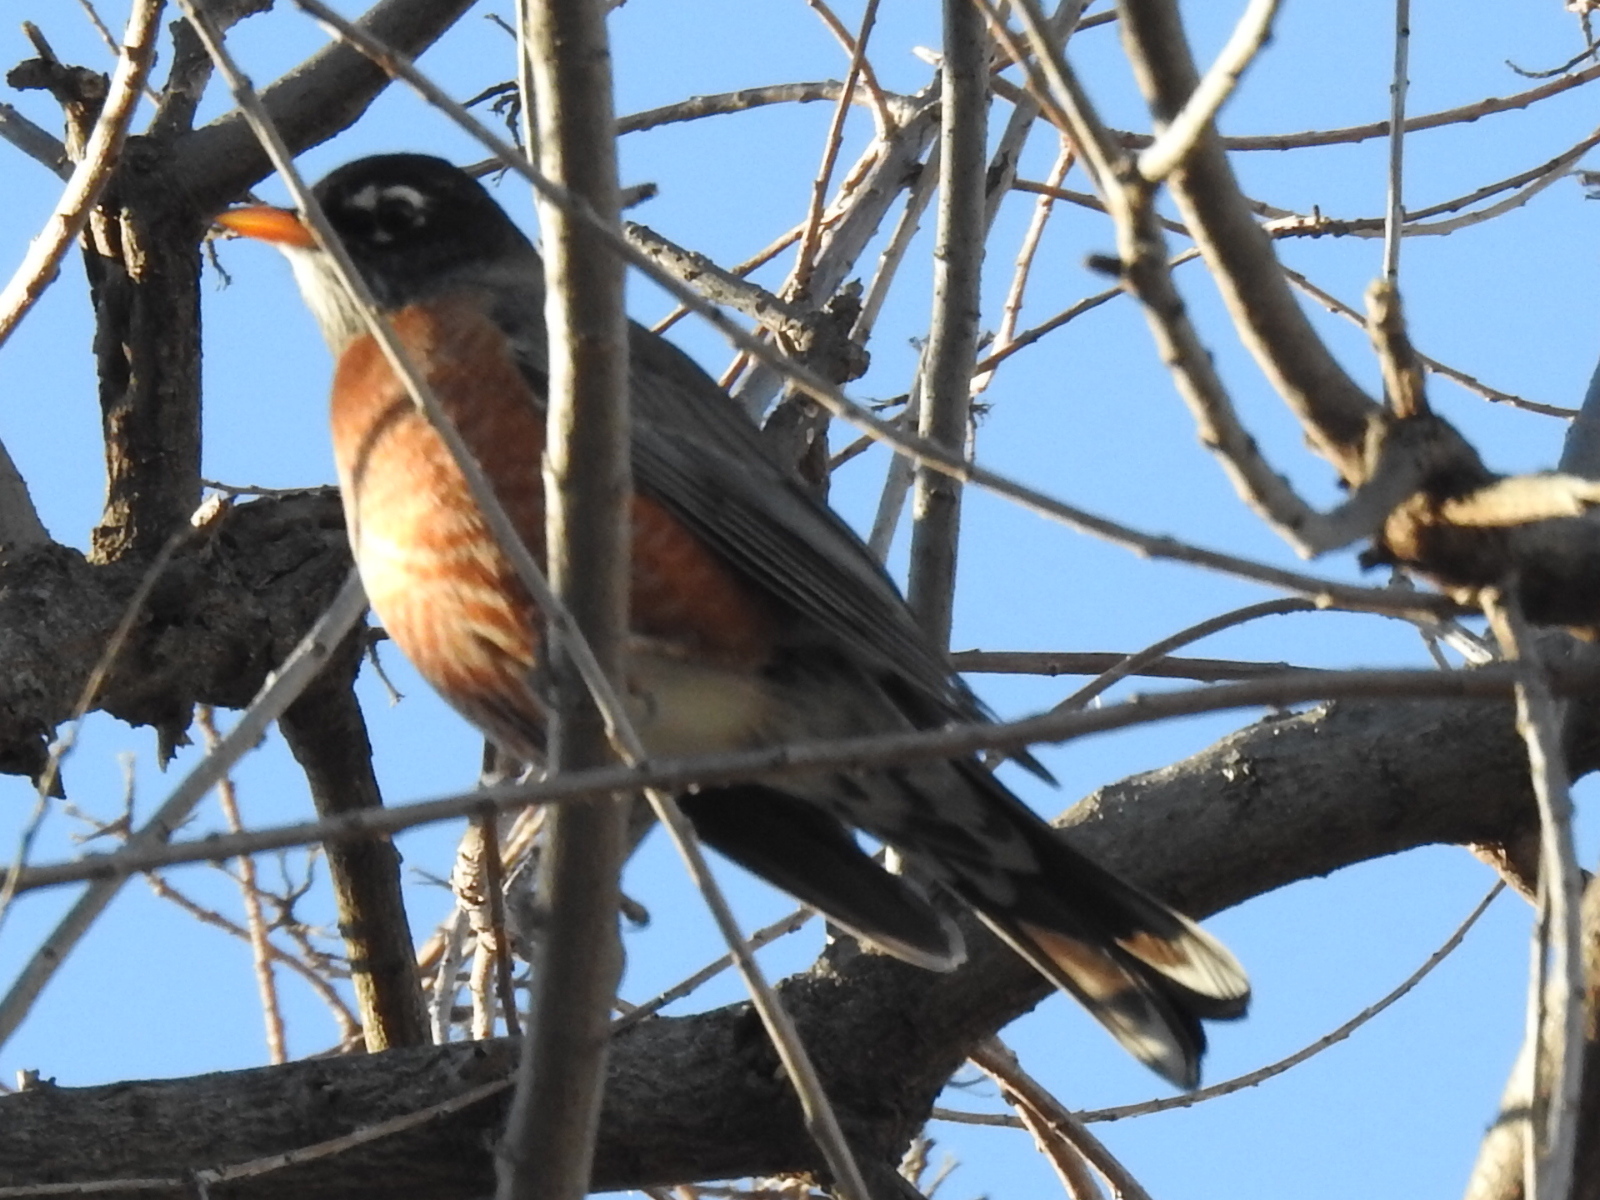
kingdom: Animalia
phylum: Chordata
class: Aves
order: Passeriformes
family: Turdidae
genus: Turdus
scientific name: Turdus migratorius
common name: American robin
